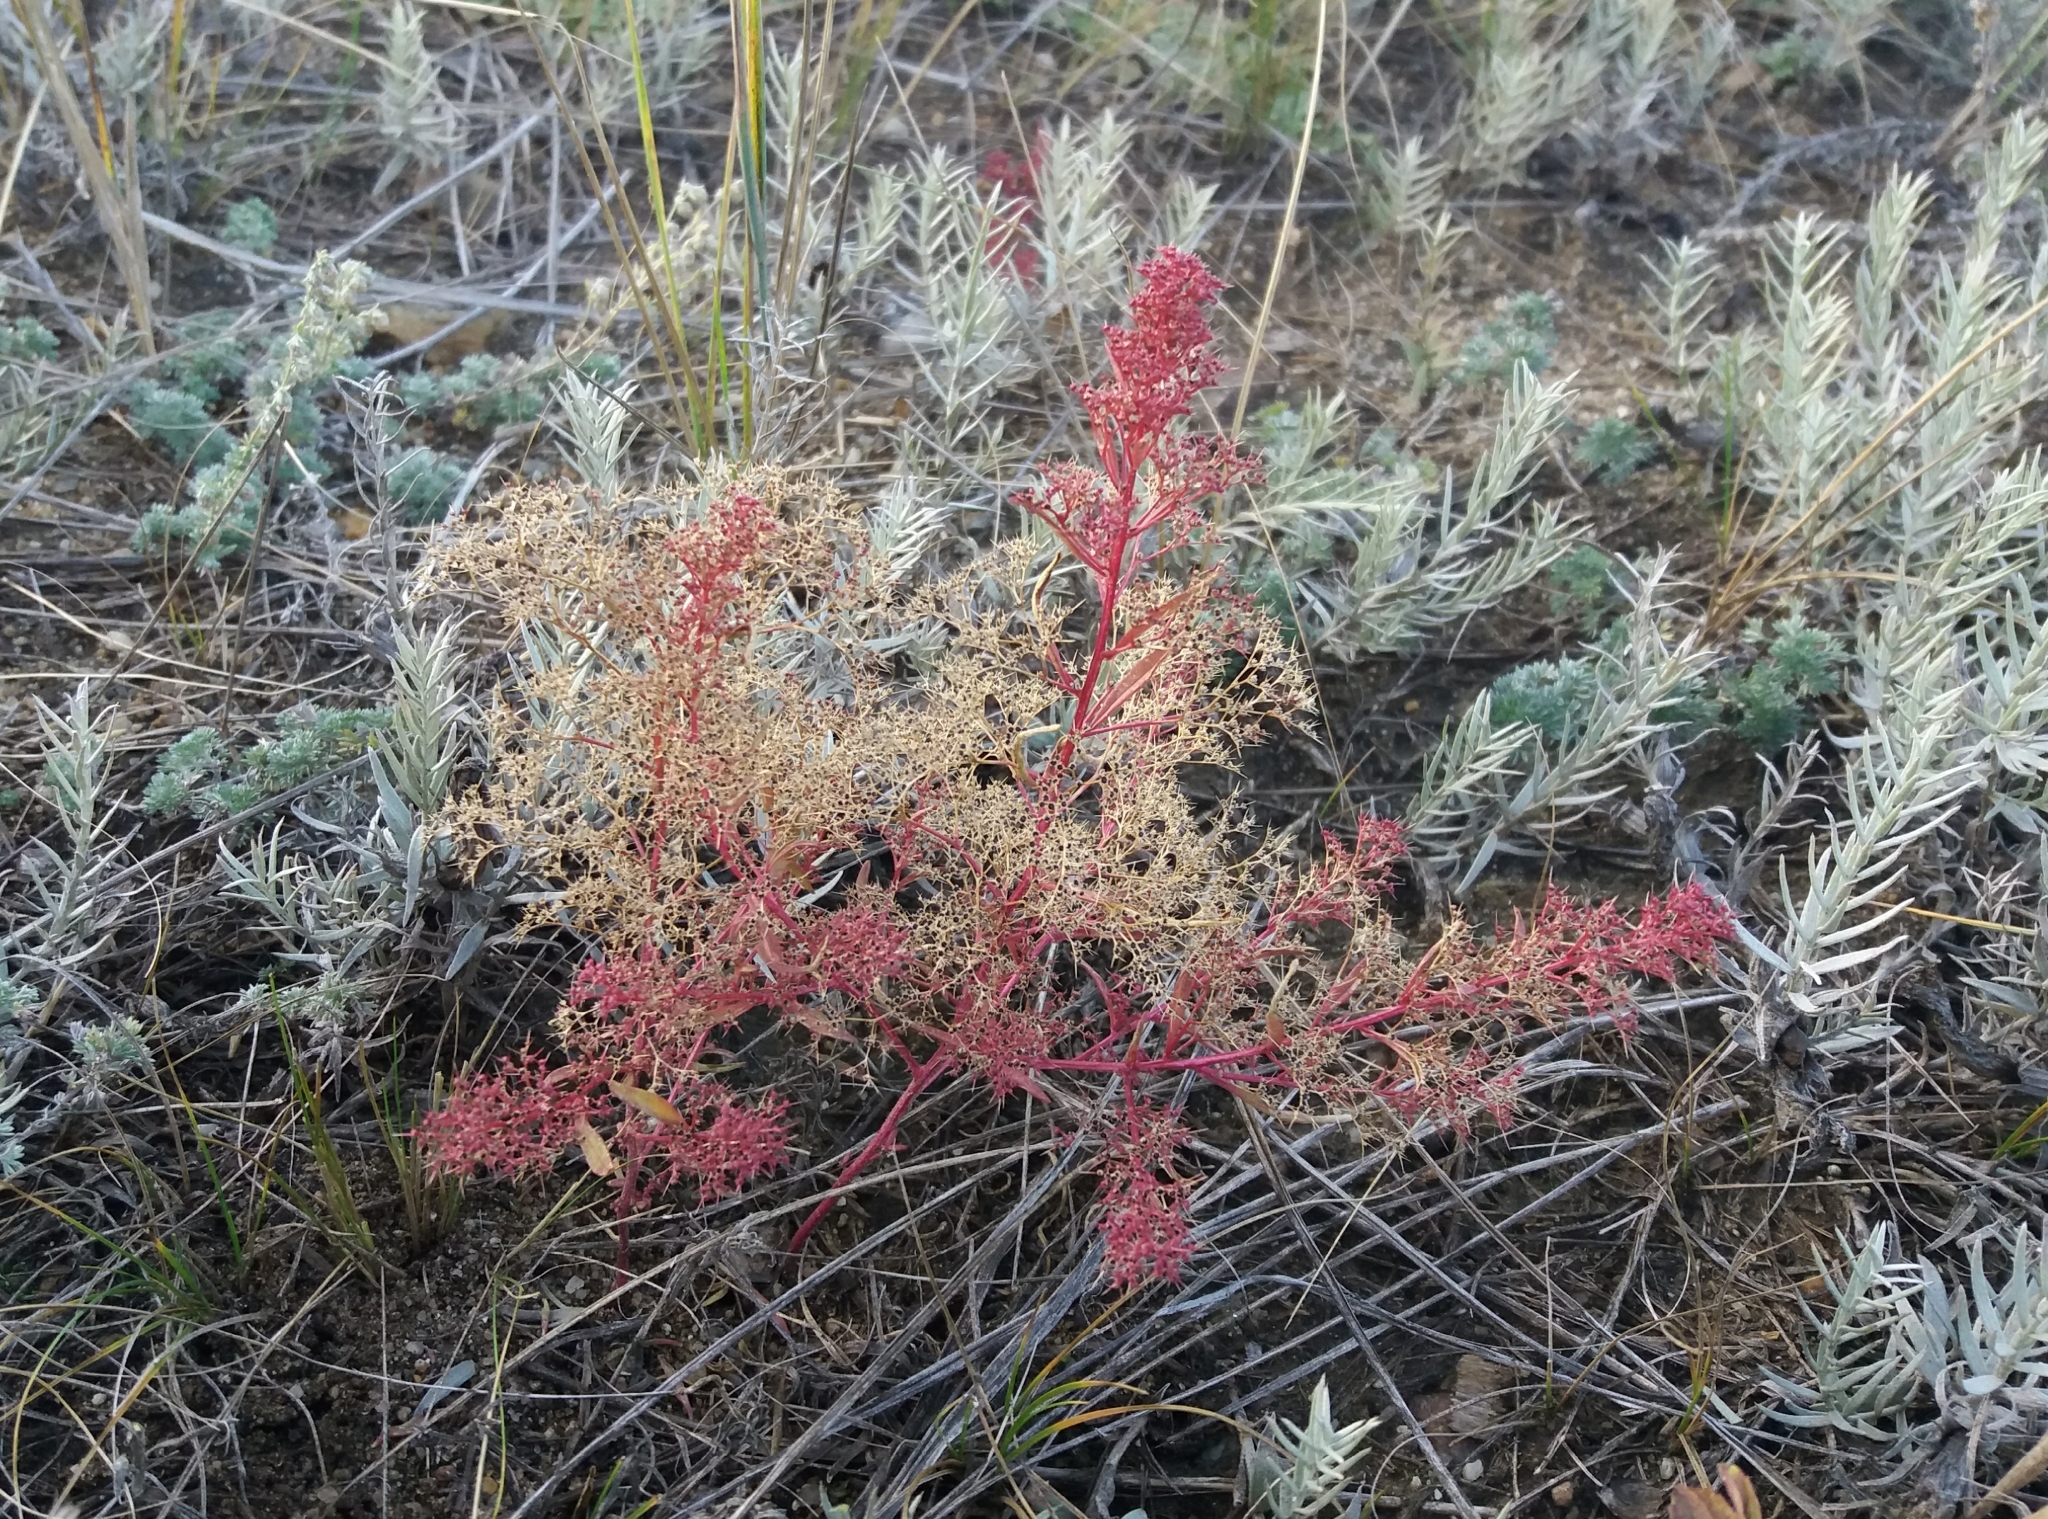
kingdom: Plantae
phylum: Tracheophyta
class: Magnoliopsida
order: Caryophyllales
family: Amaranthaceae
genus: Teloxys
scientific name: Teloxys aristata
